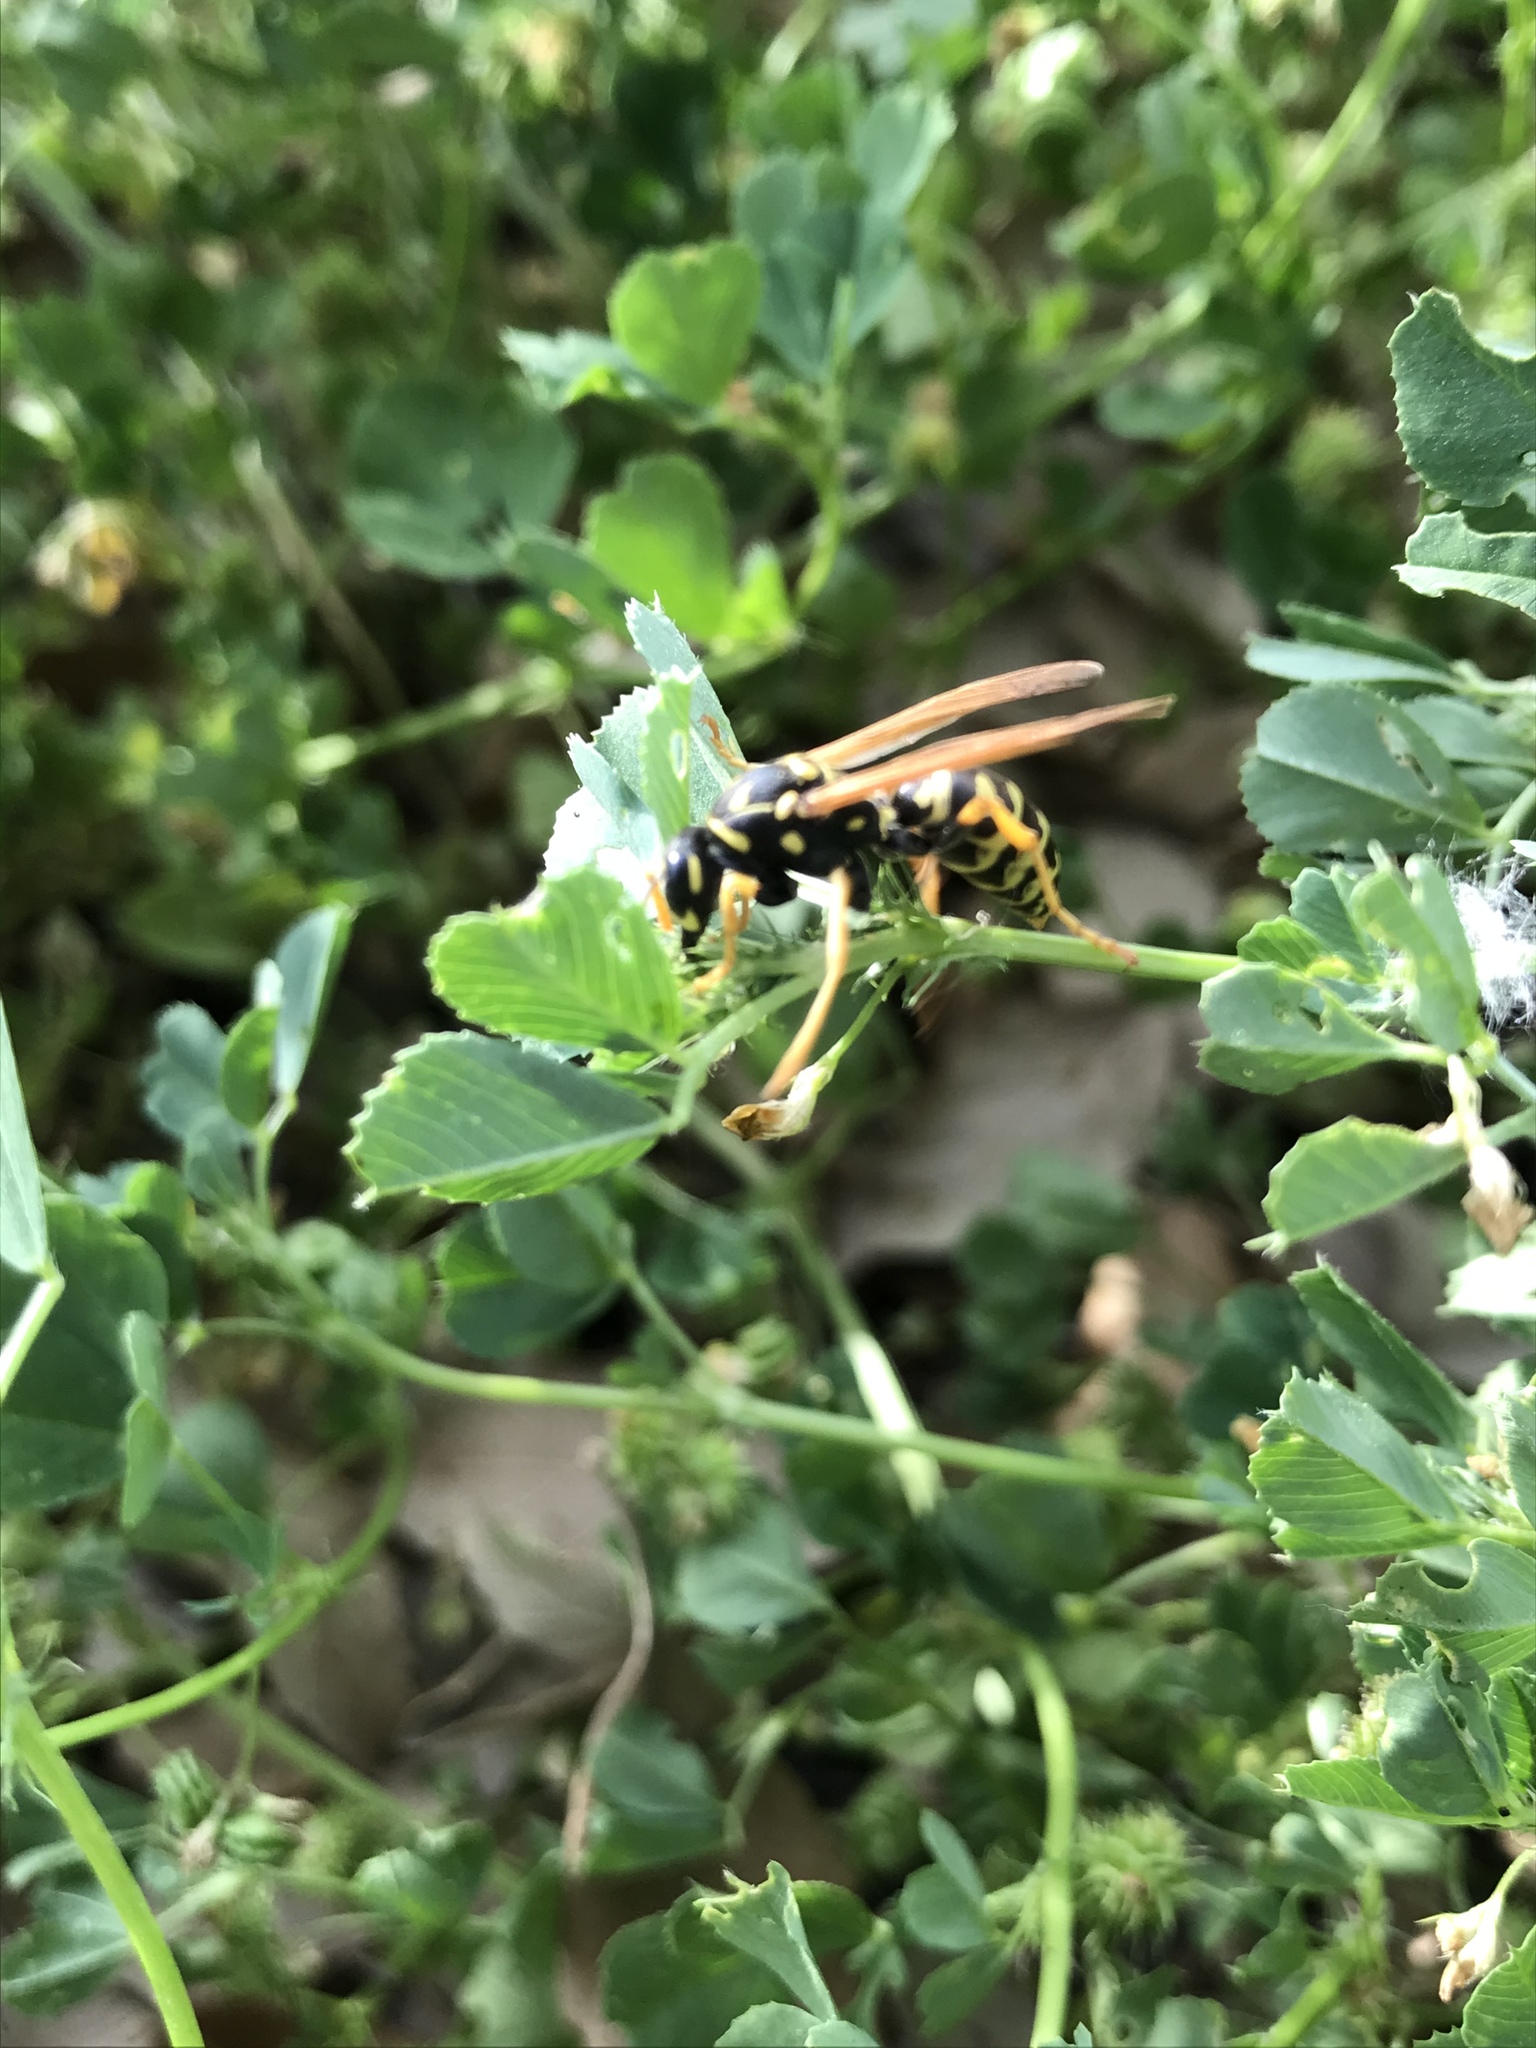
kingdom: Animalia
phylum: Arthropoda
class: Insecta
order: Hymenoptera
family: Eumenidae
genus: Polistes
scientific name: Polistes dominula
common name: Paper wasp
